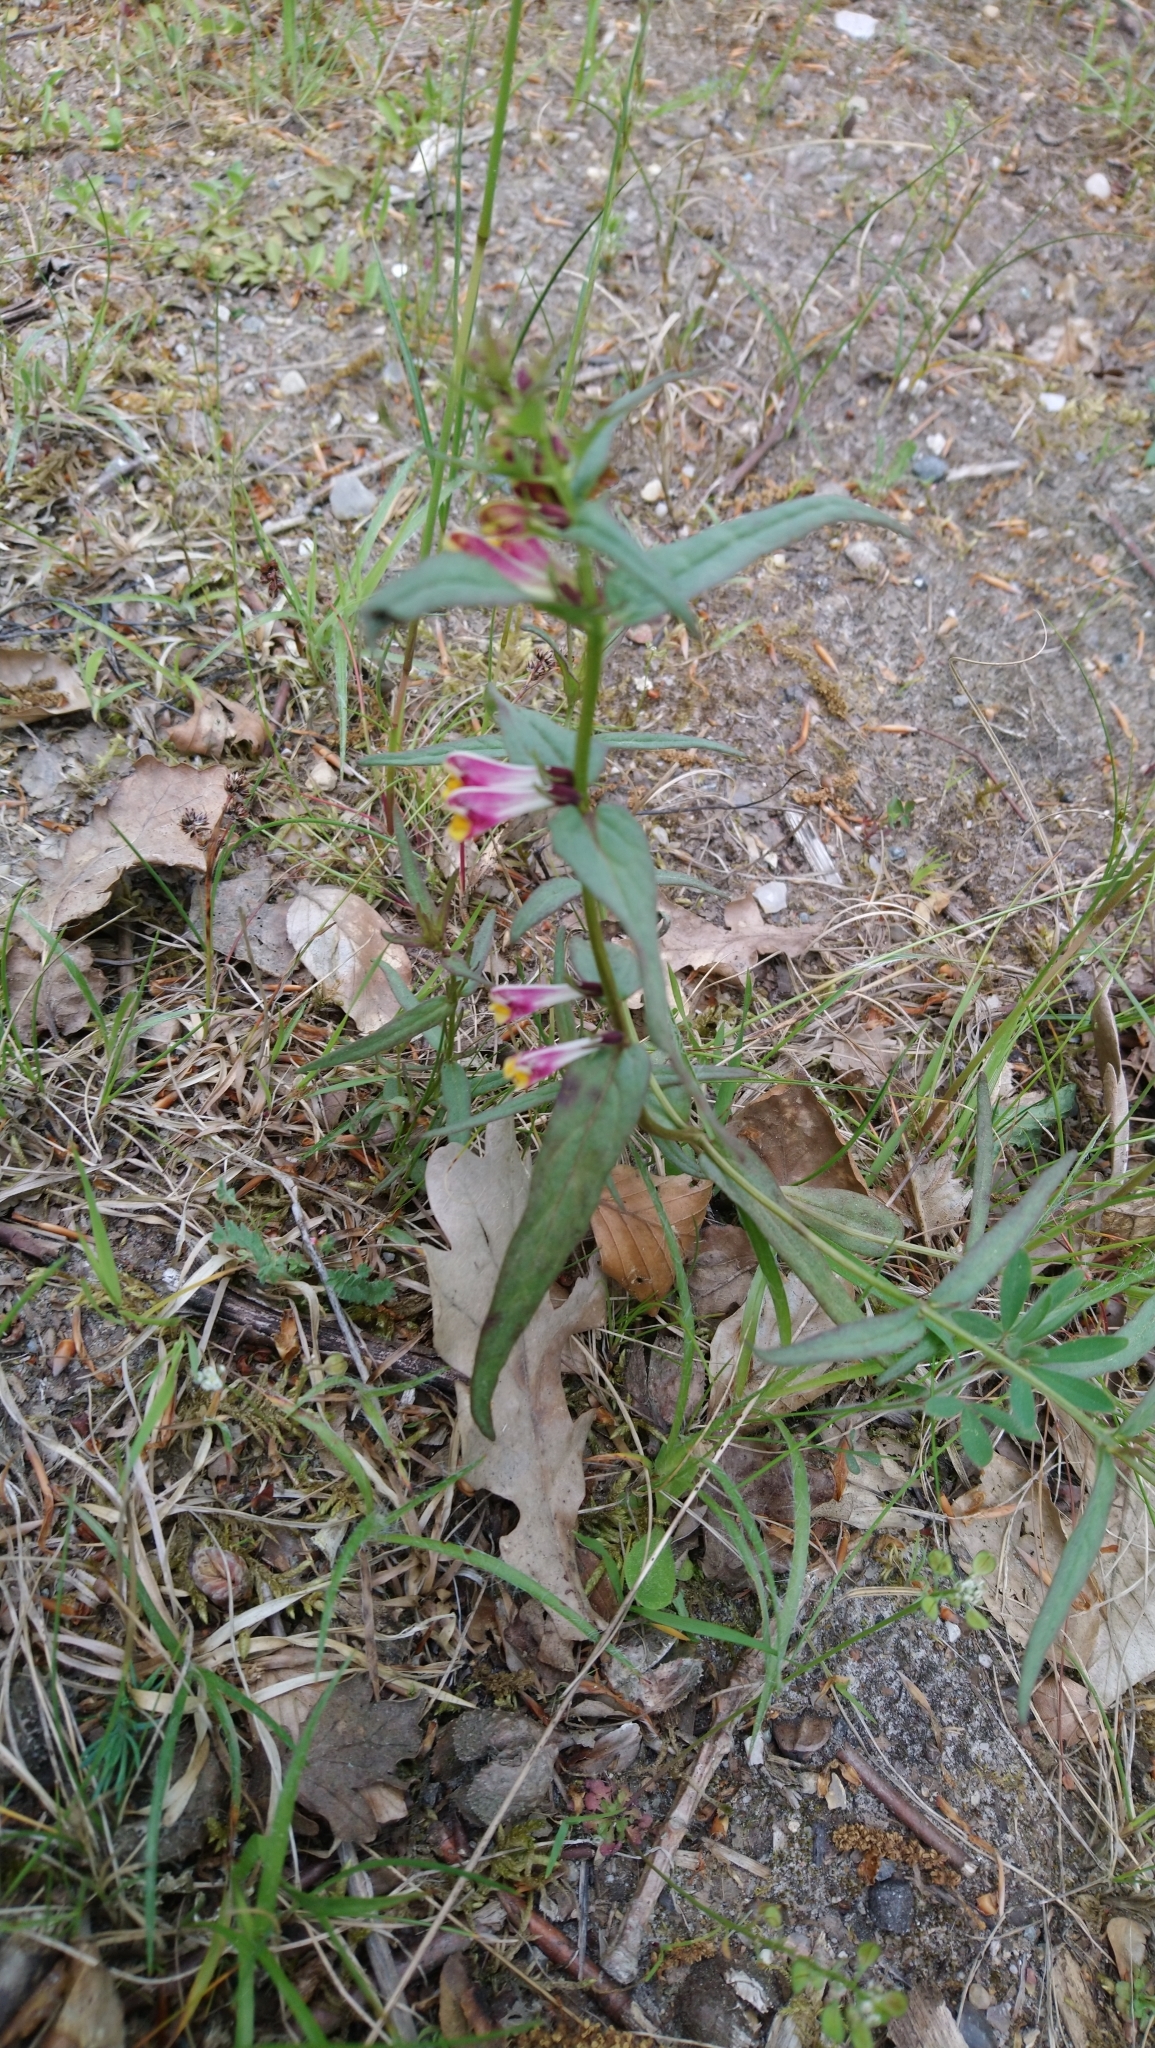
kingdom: Plantae
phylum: Tracheophyta
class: Magnoliopsida
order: Lamiales
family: Orobanchaceae
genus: Melampyrum
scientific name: Melampyrum pratense
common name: Common cow-wheat
